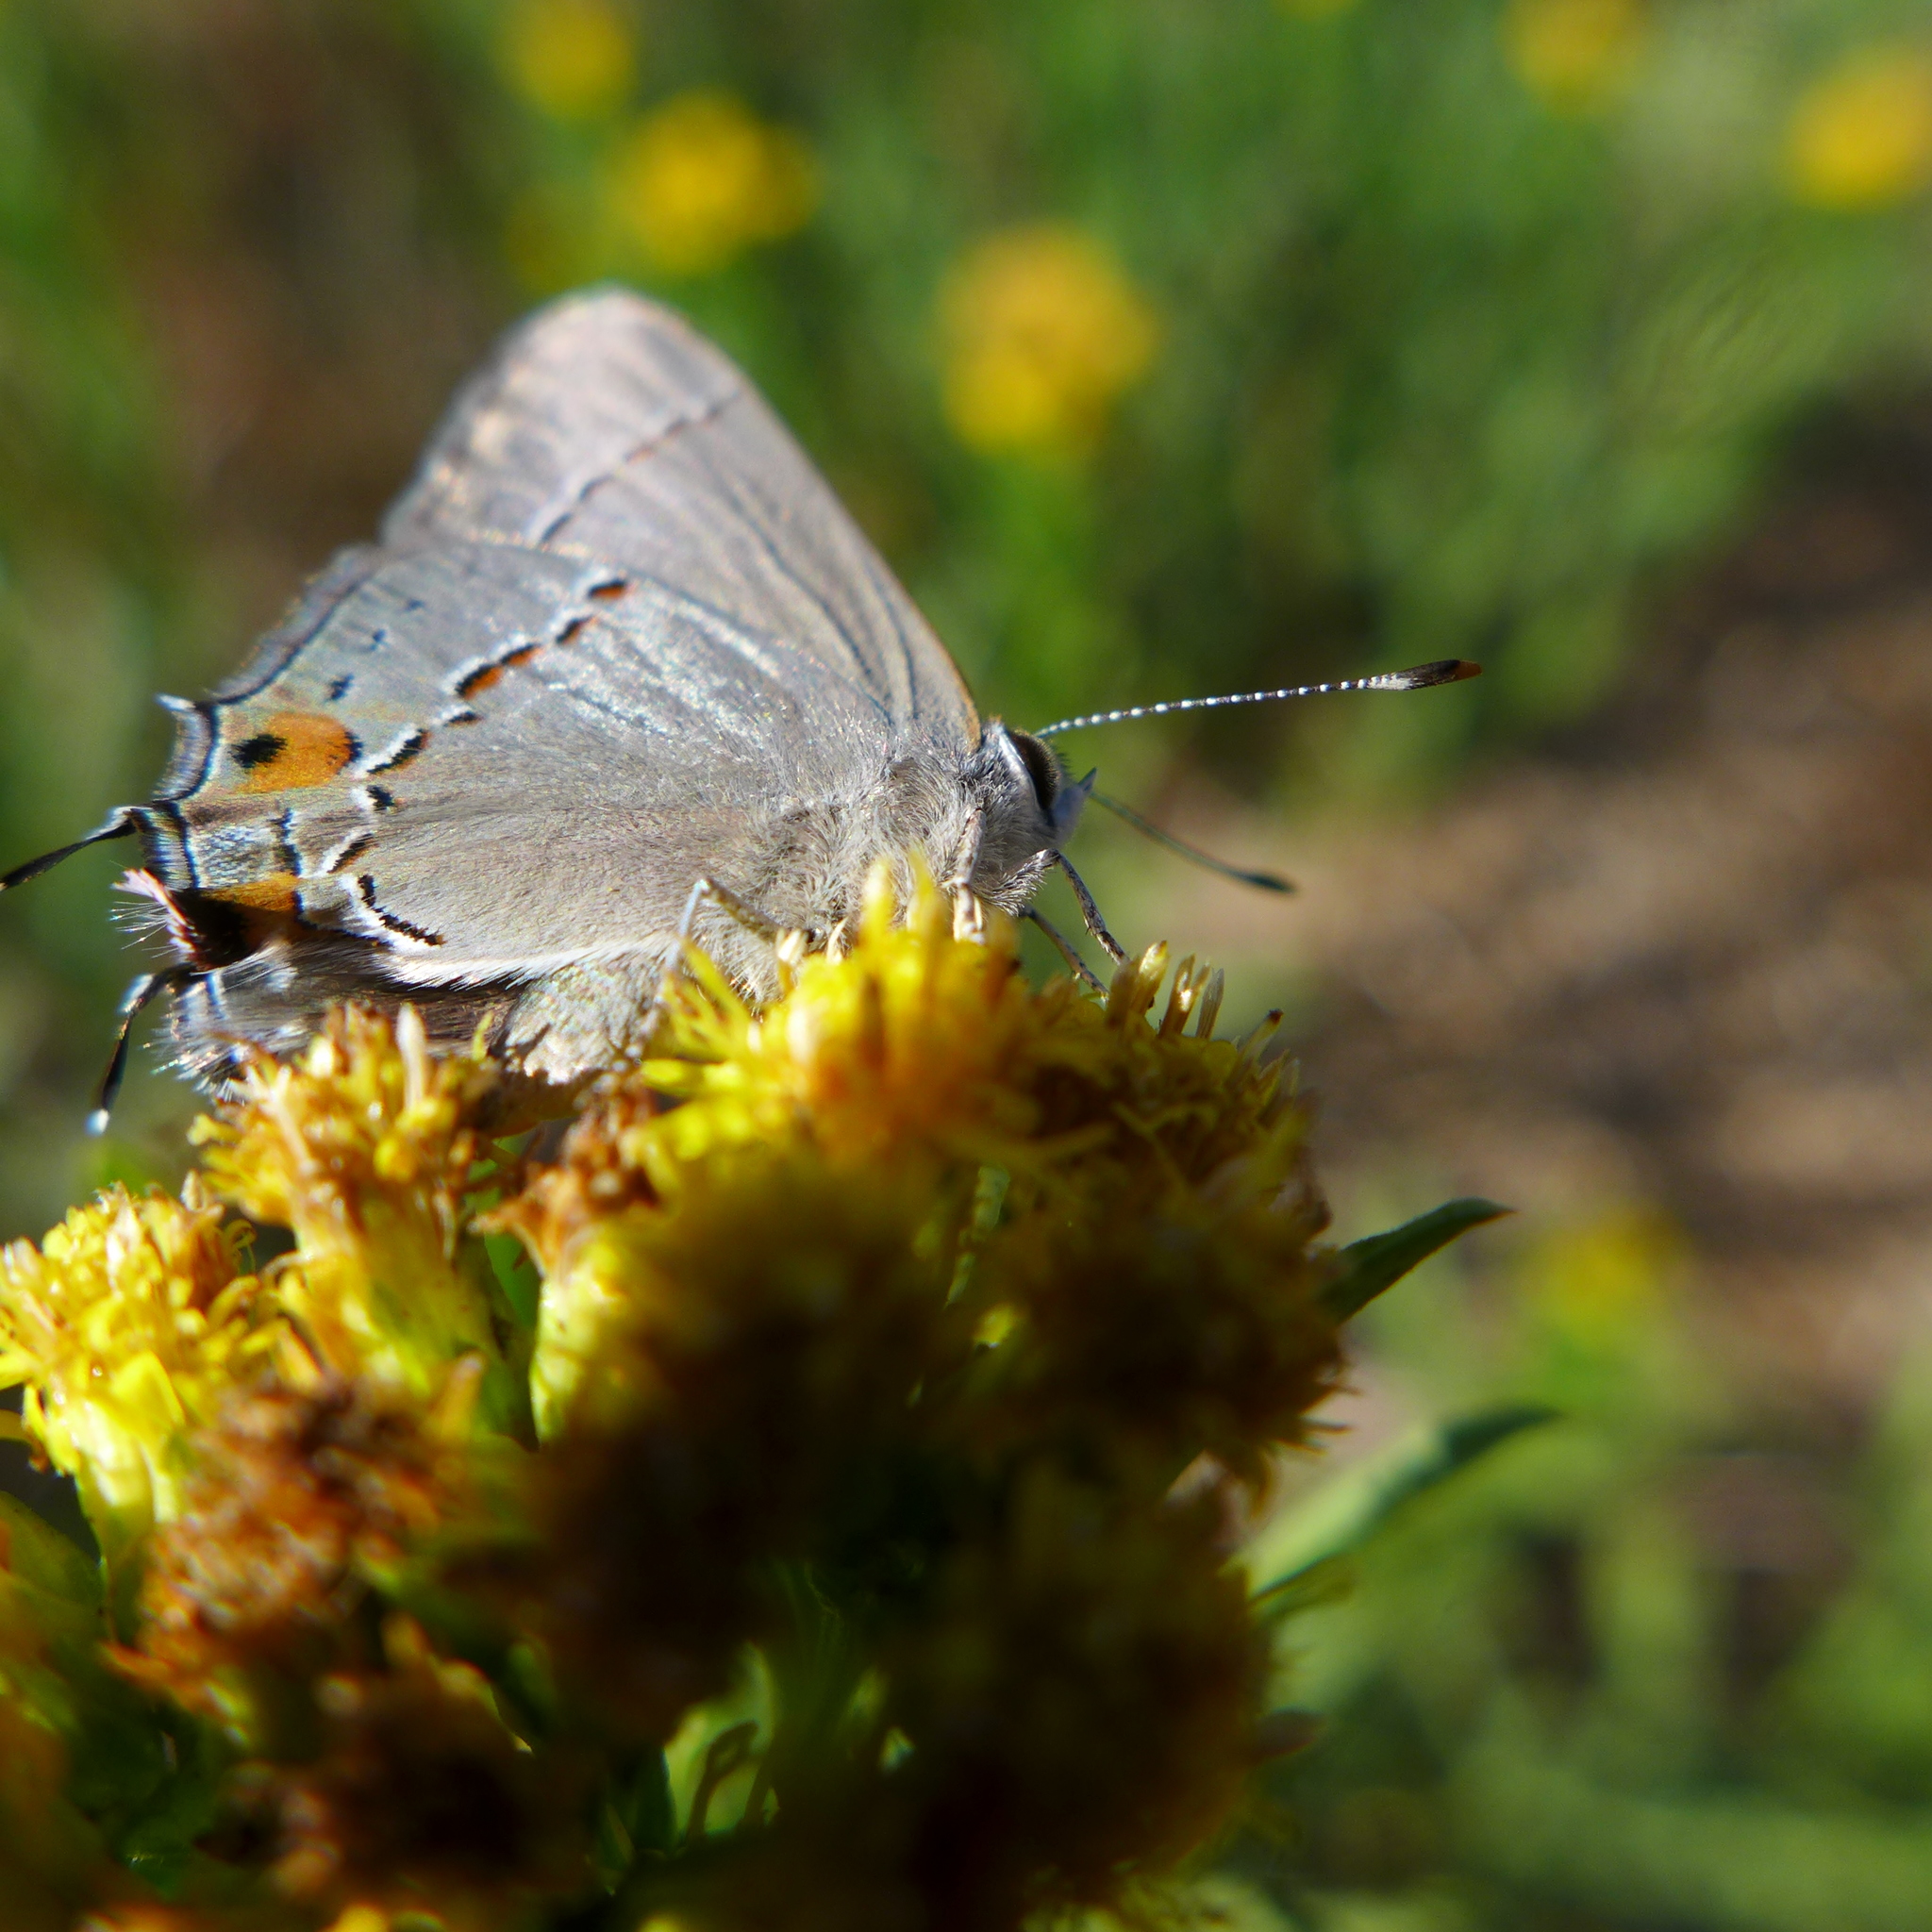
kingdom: Animalia
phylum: Arthropoda
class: Insecta
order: Lepidoptera
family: Lycaenidae
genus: Strymon
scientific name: Strymon melinus
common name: Gray hairstreak
